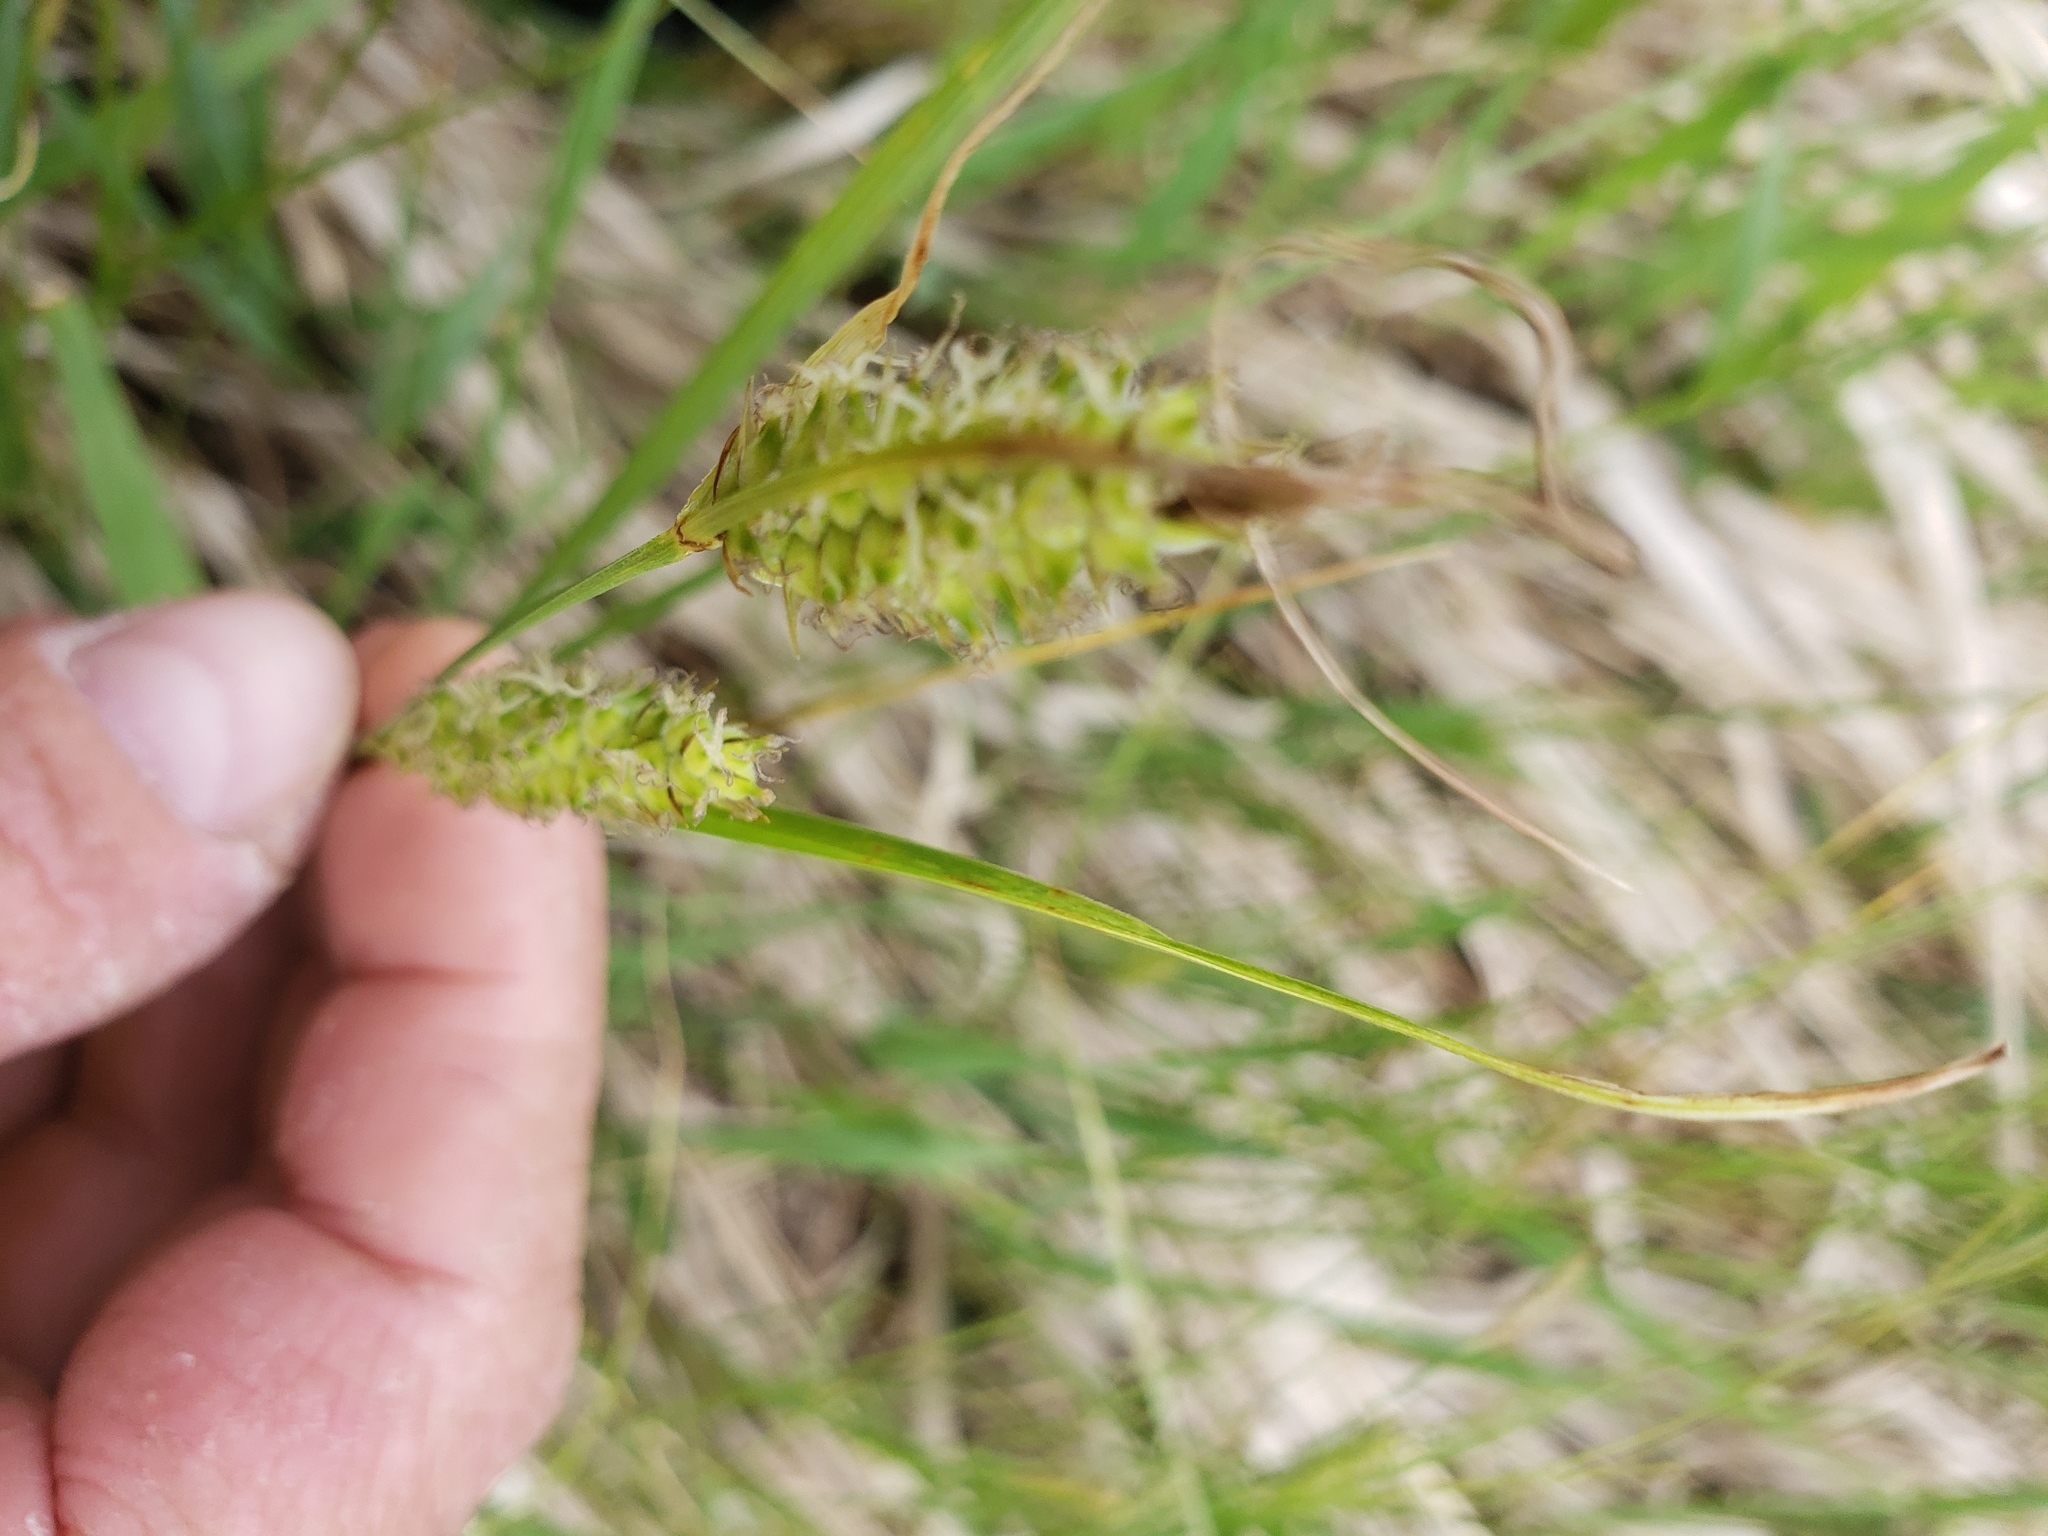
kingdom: Plantae
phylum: Tracheophyta
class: Liliopsida
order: Poales
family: Cyperaceae
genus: Carex
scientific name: Carex pellita
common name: Woolly sedge
